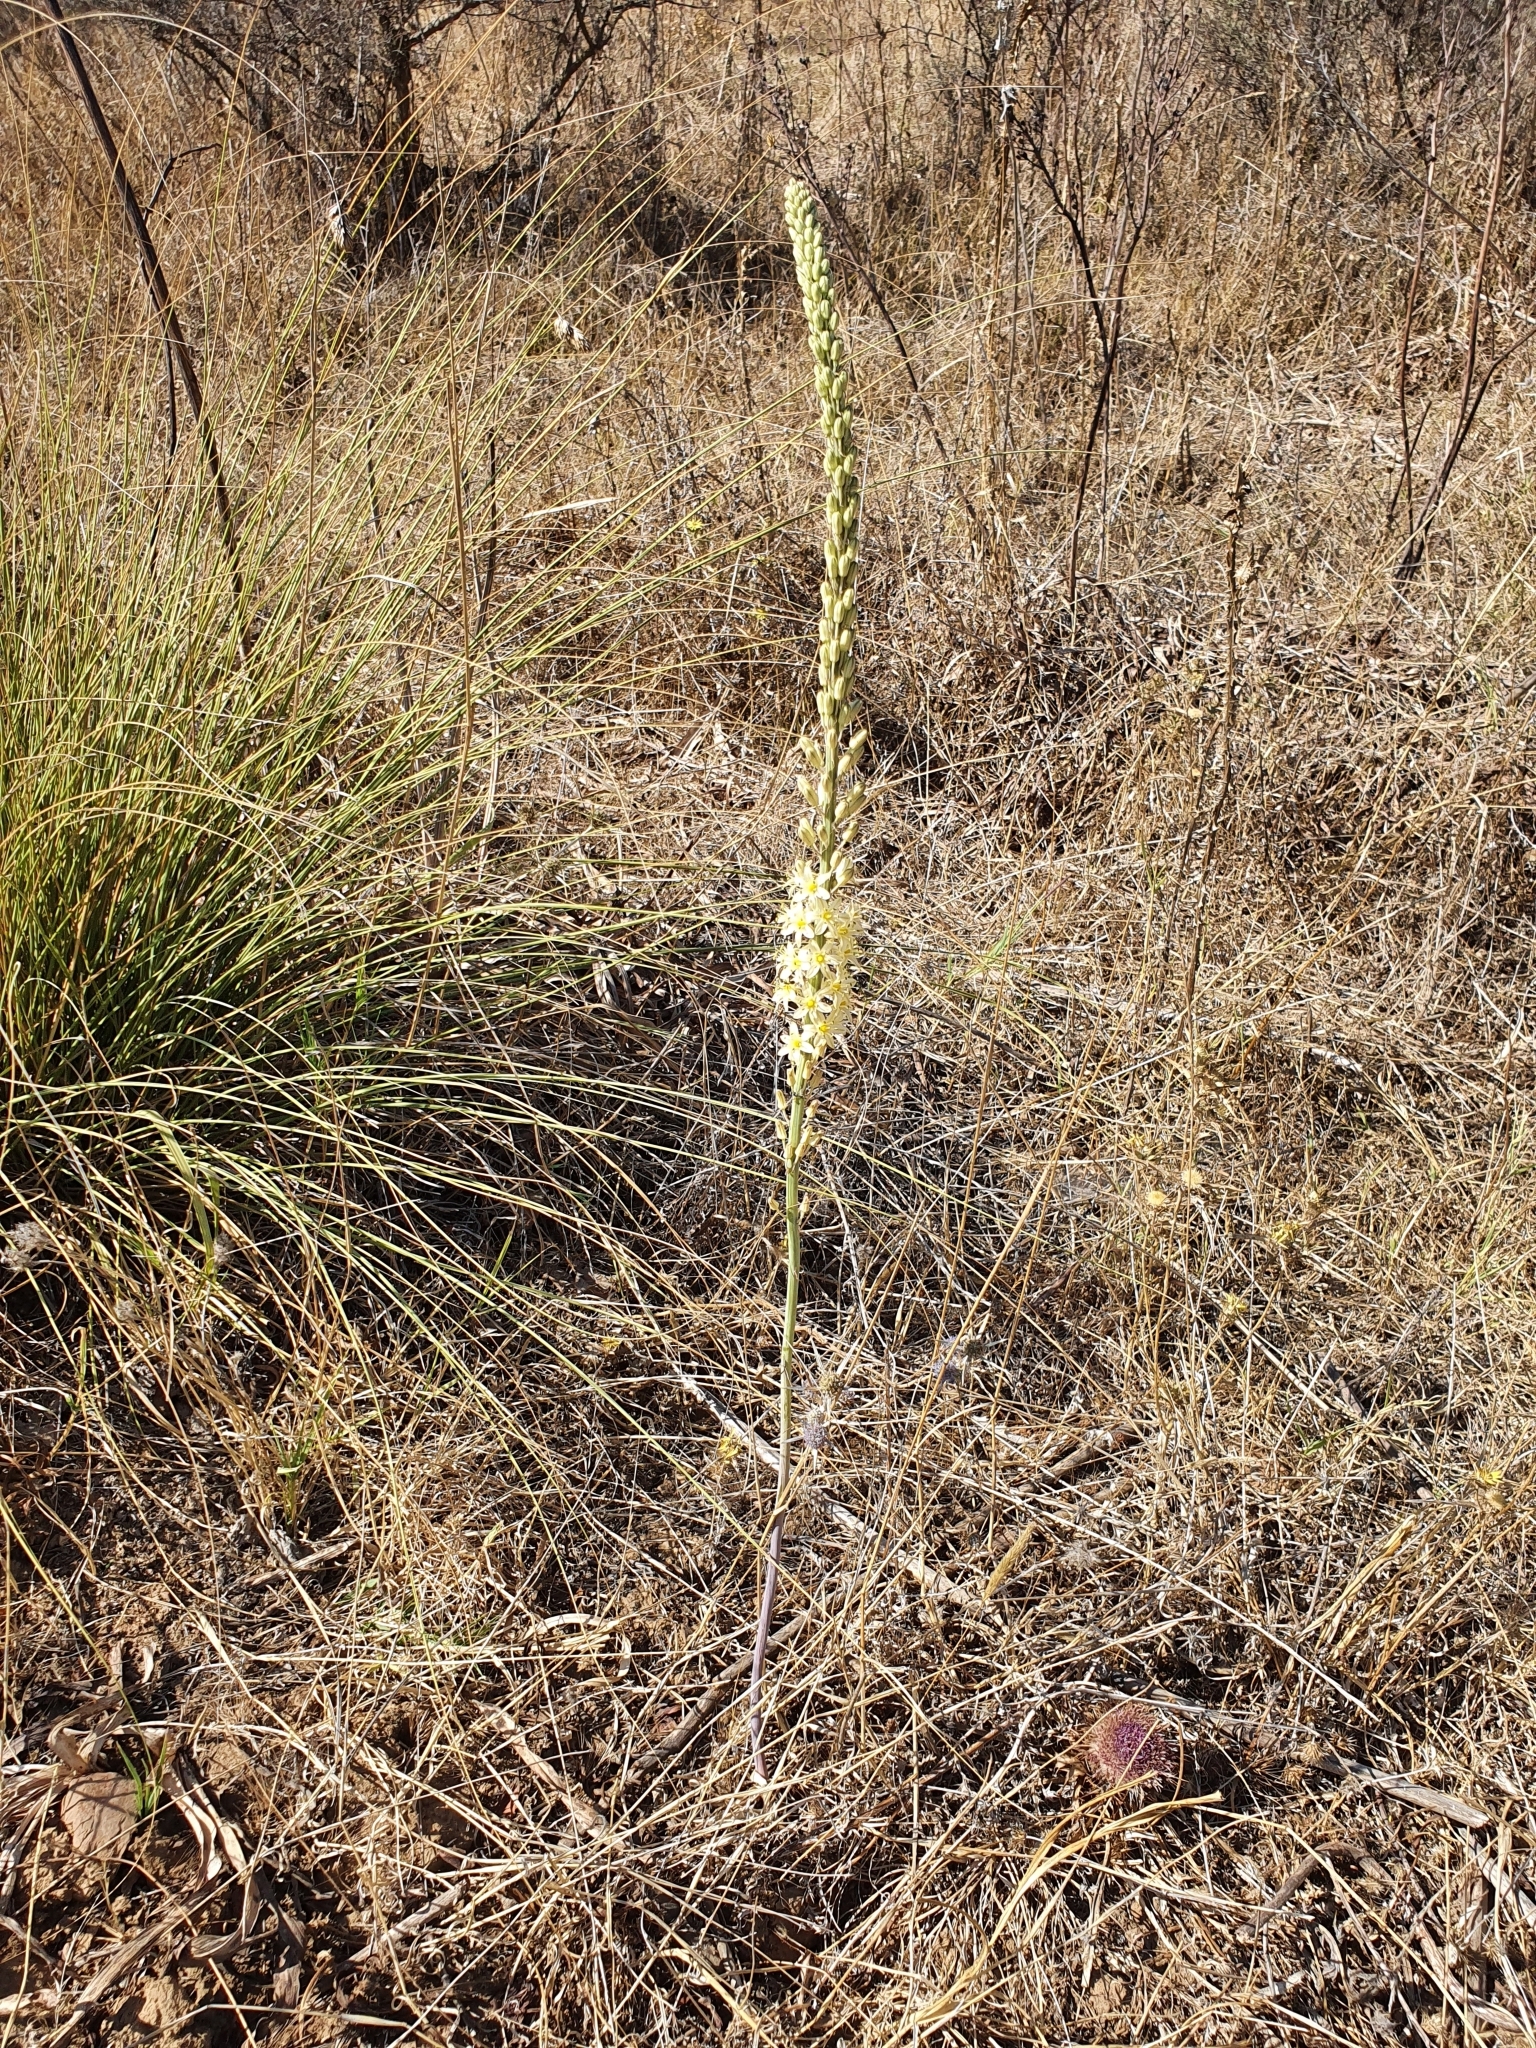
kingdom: Plantae
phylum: Tracheophyta
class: Liliopsida
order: Asparagales
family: Asparagaceae
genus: Drimia
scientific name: Drimia anthericoides
